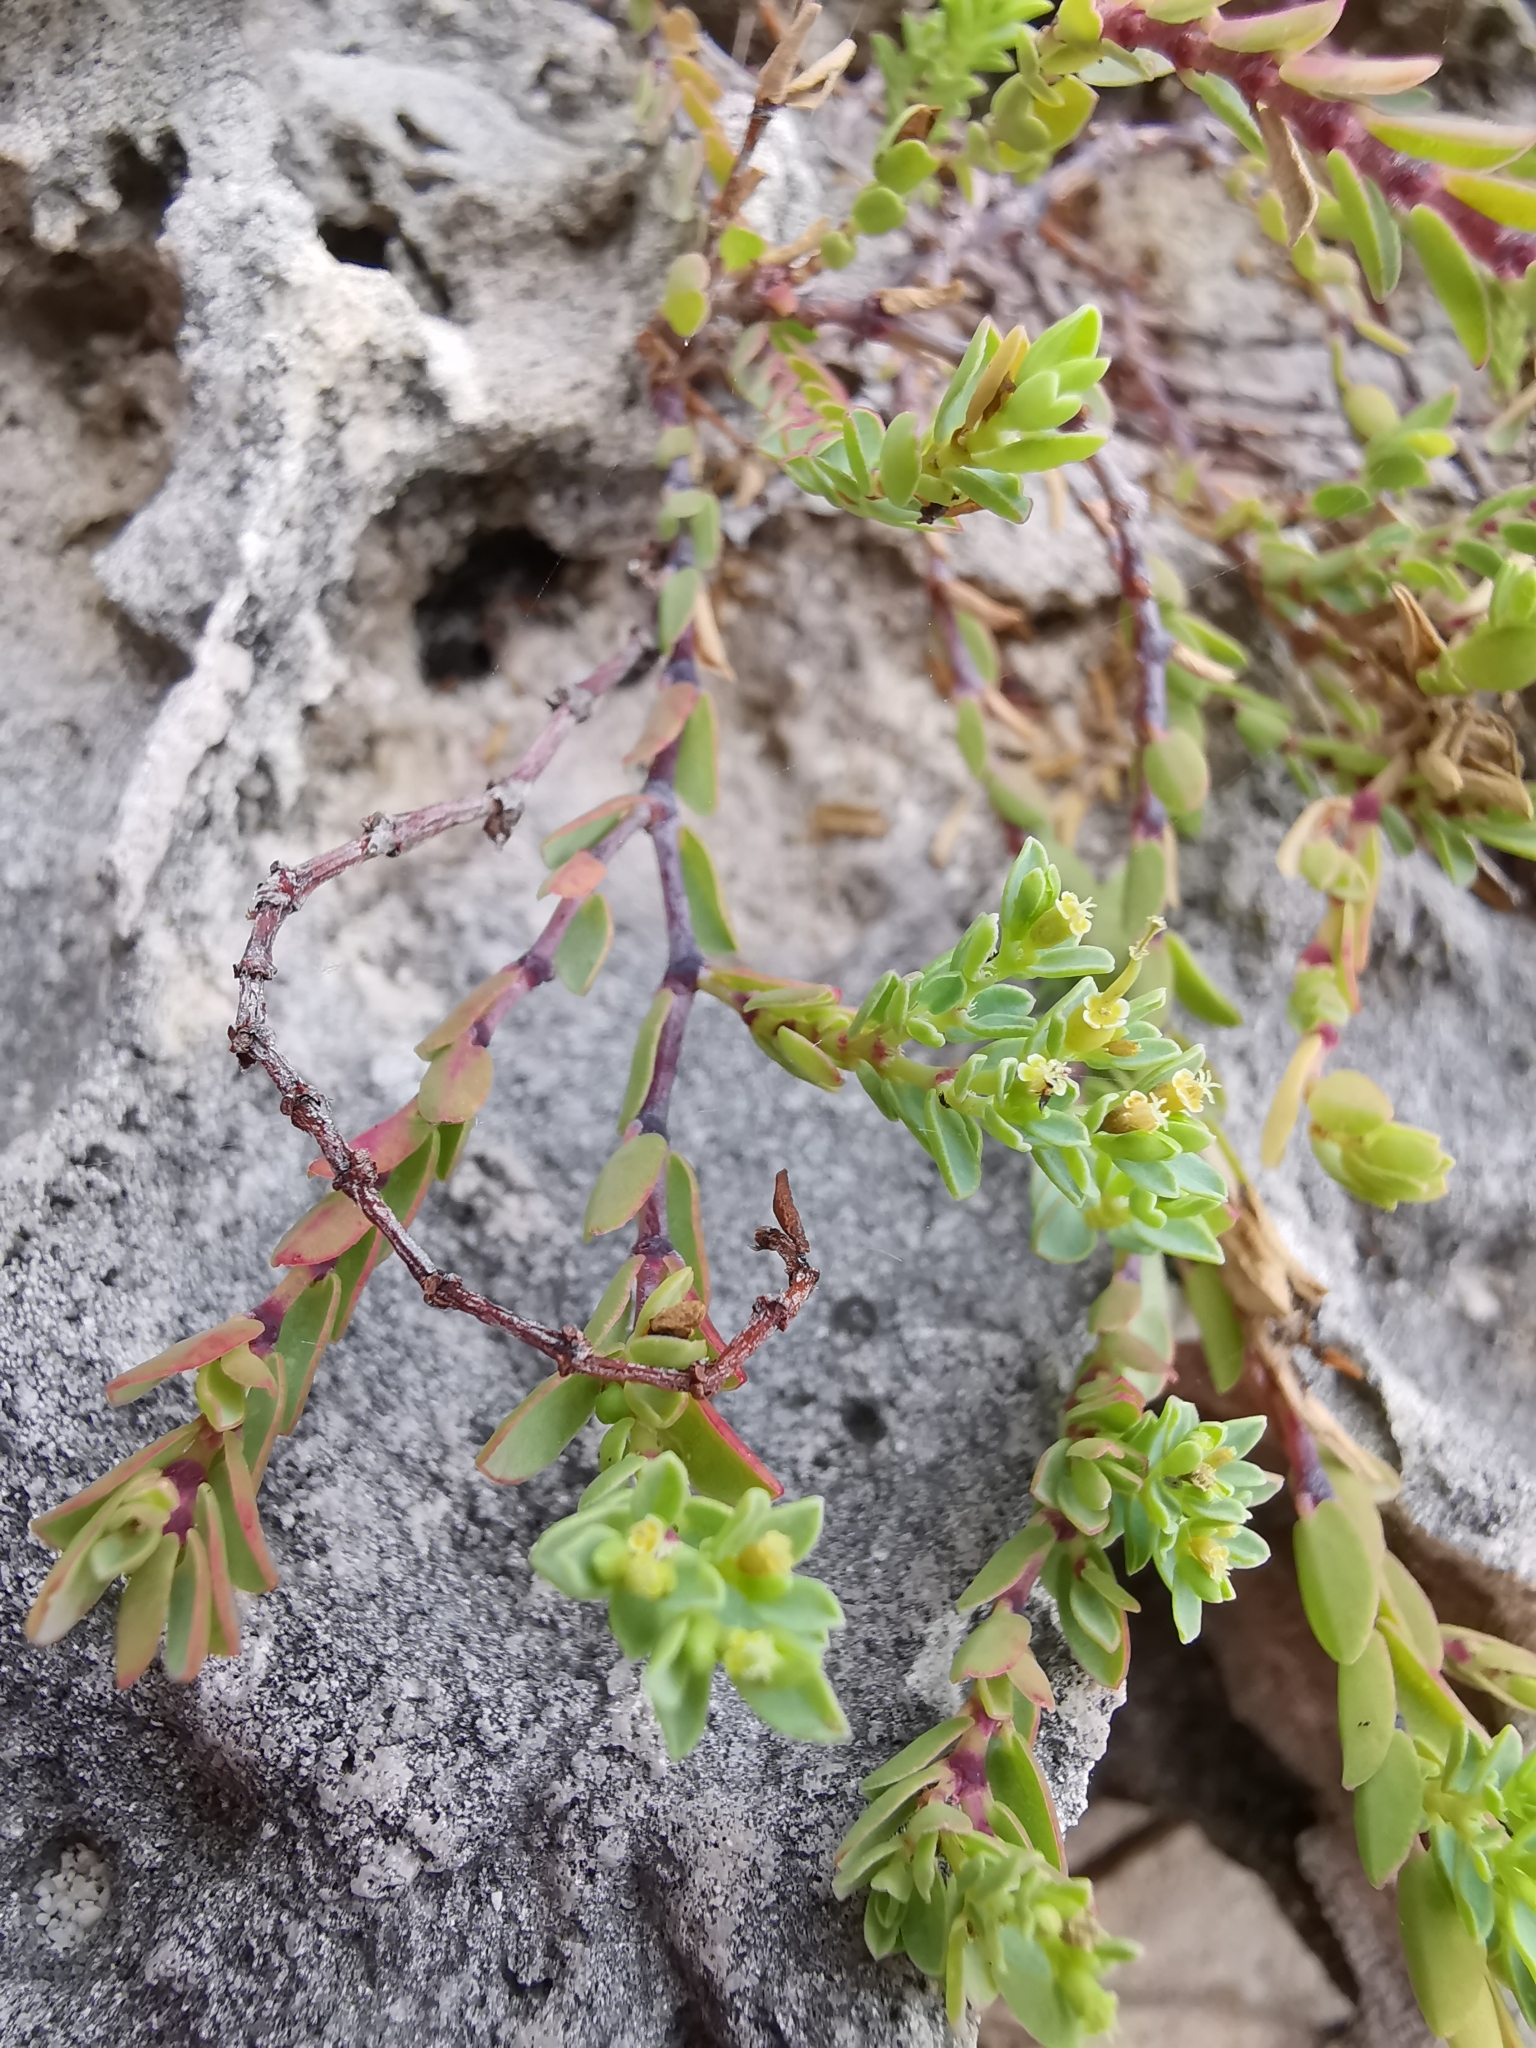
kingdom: Plantae
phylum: Tracheophyta
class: Magnoliopsida
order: Malpighiales
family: Euphorbiaceae
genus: Euphorbia
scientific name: Euphorbia mesembryanthemifolia
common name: Coastal beach sandmat
